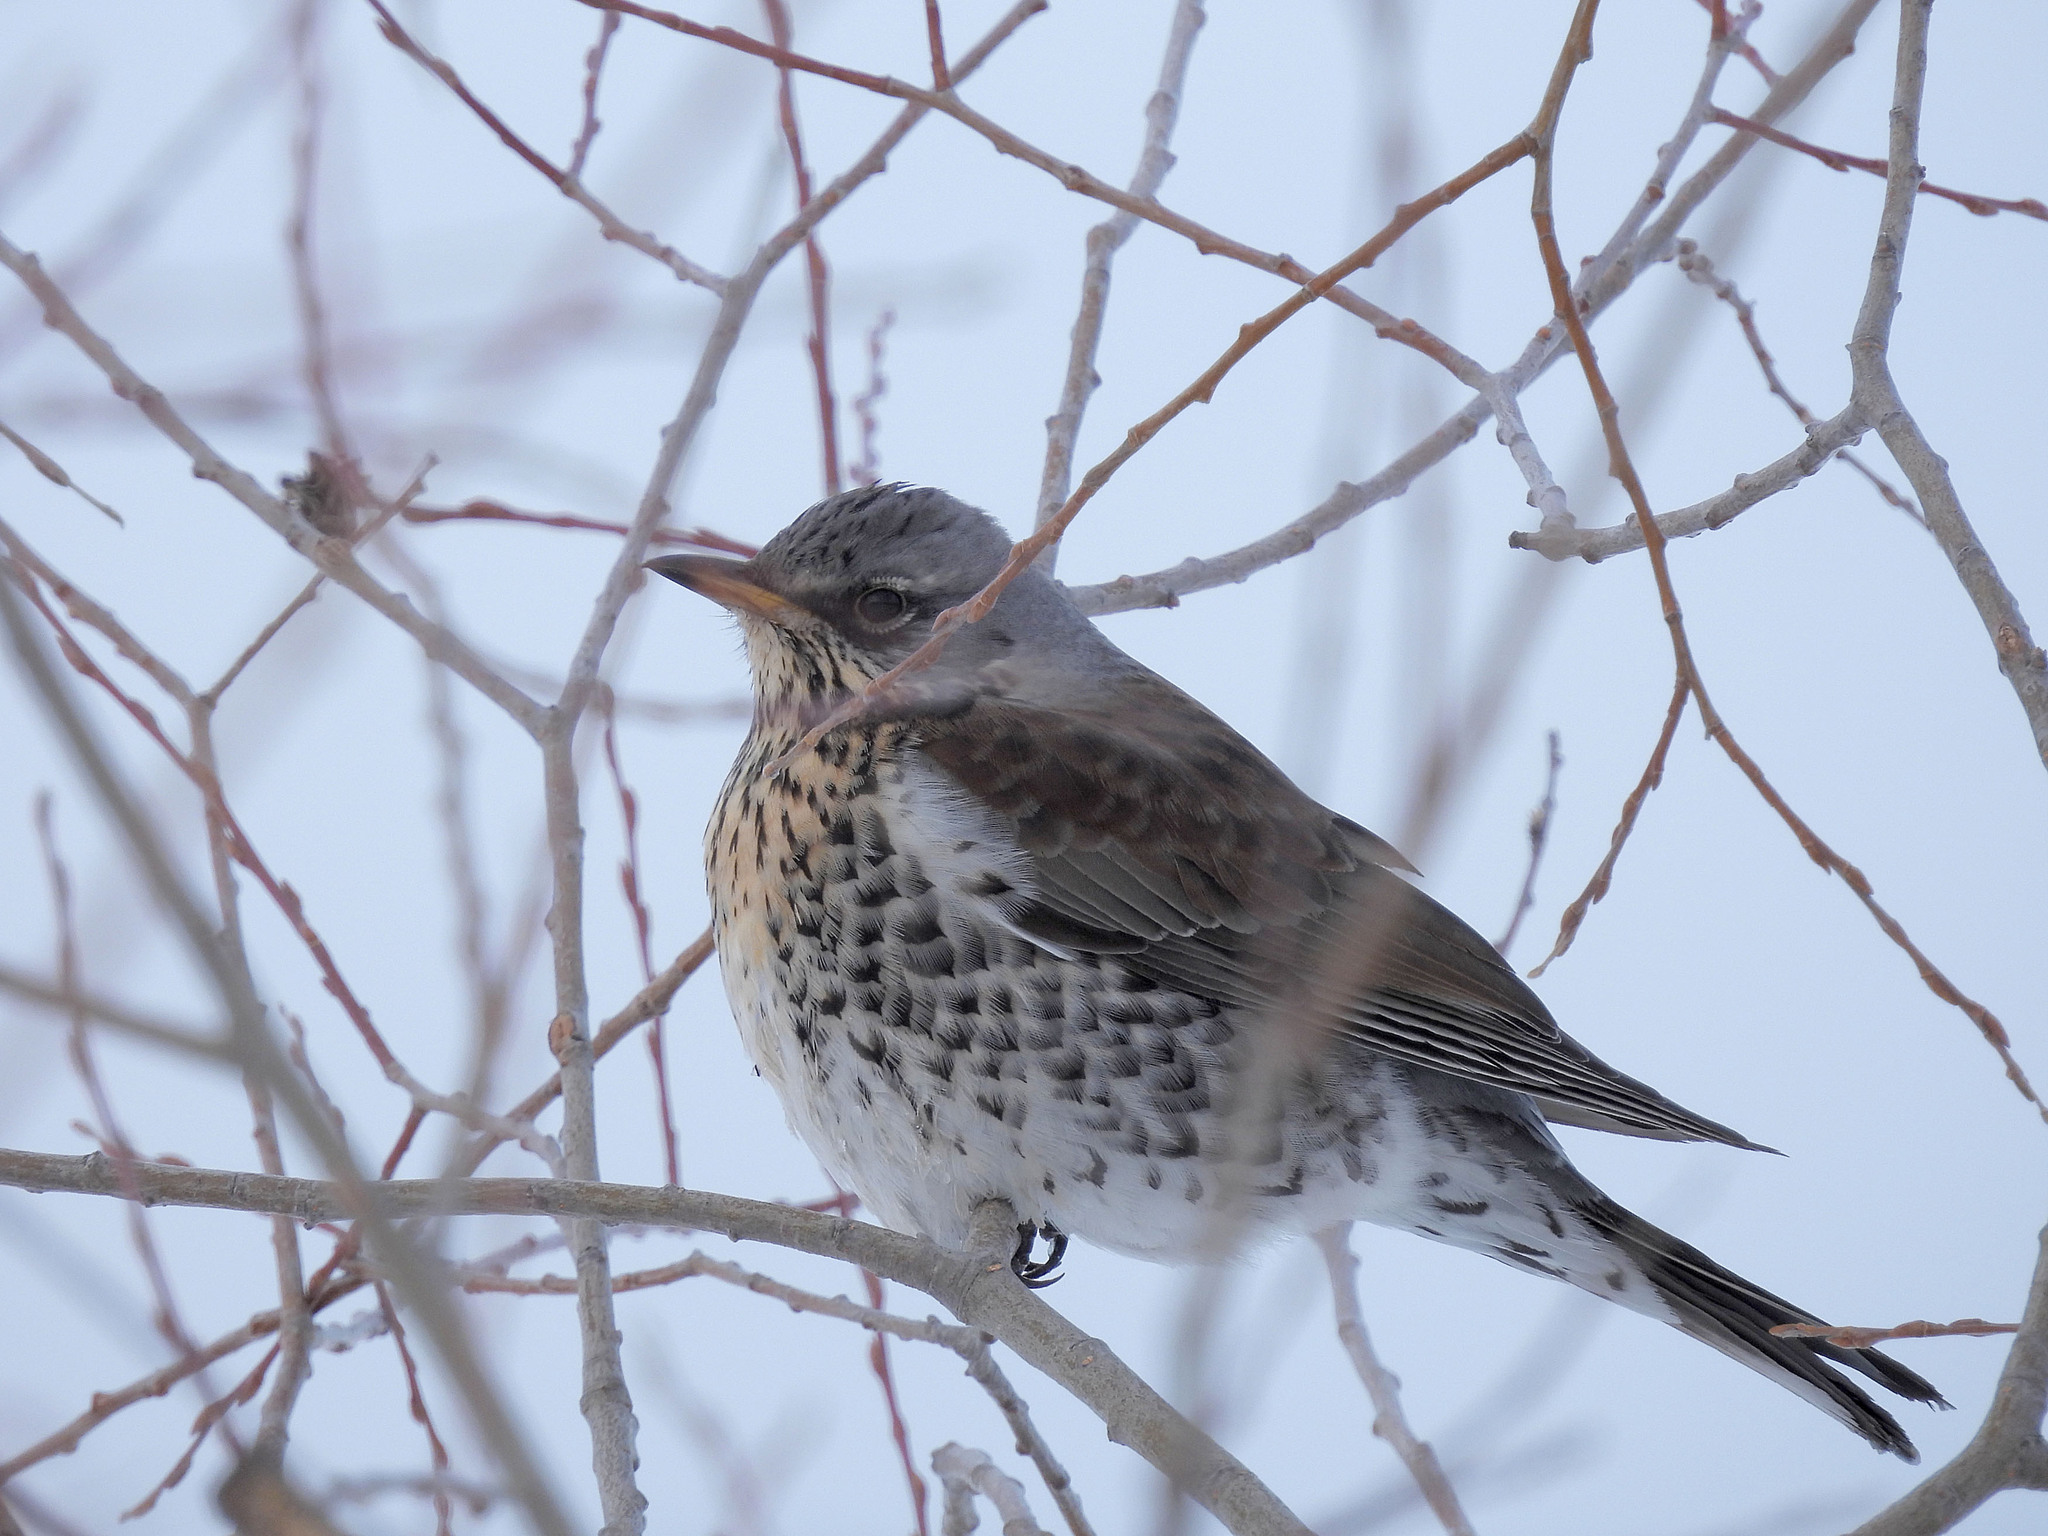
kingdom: Animalia
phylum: Chordata
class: Aves
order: Passeriformes
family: Turdidae
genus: Turdus
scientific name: Turdus pilaris
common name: Fieldfare
